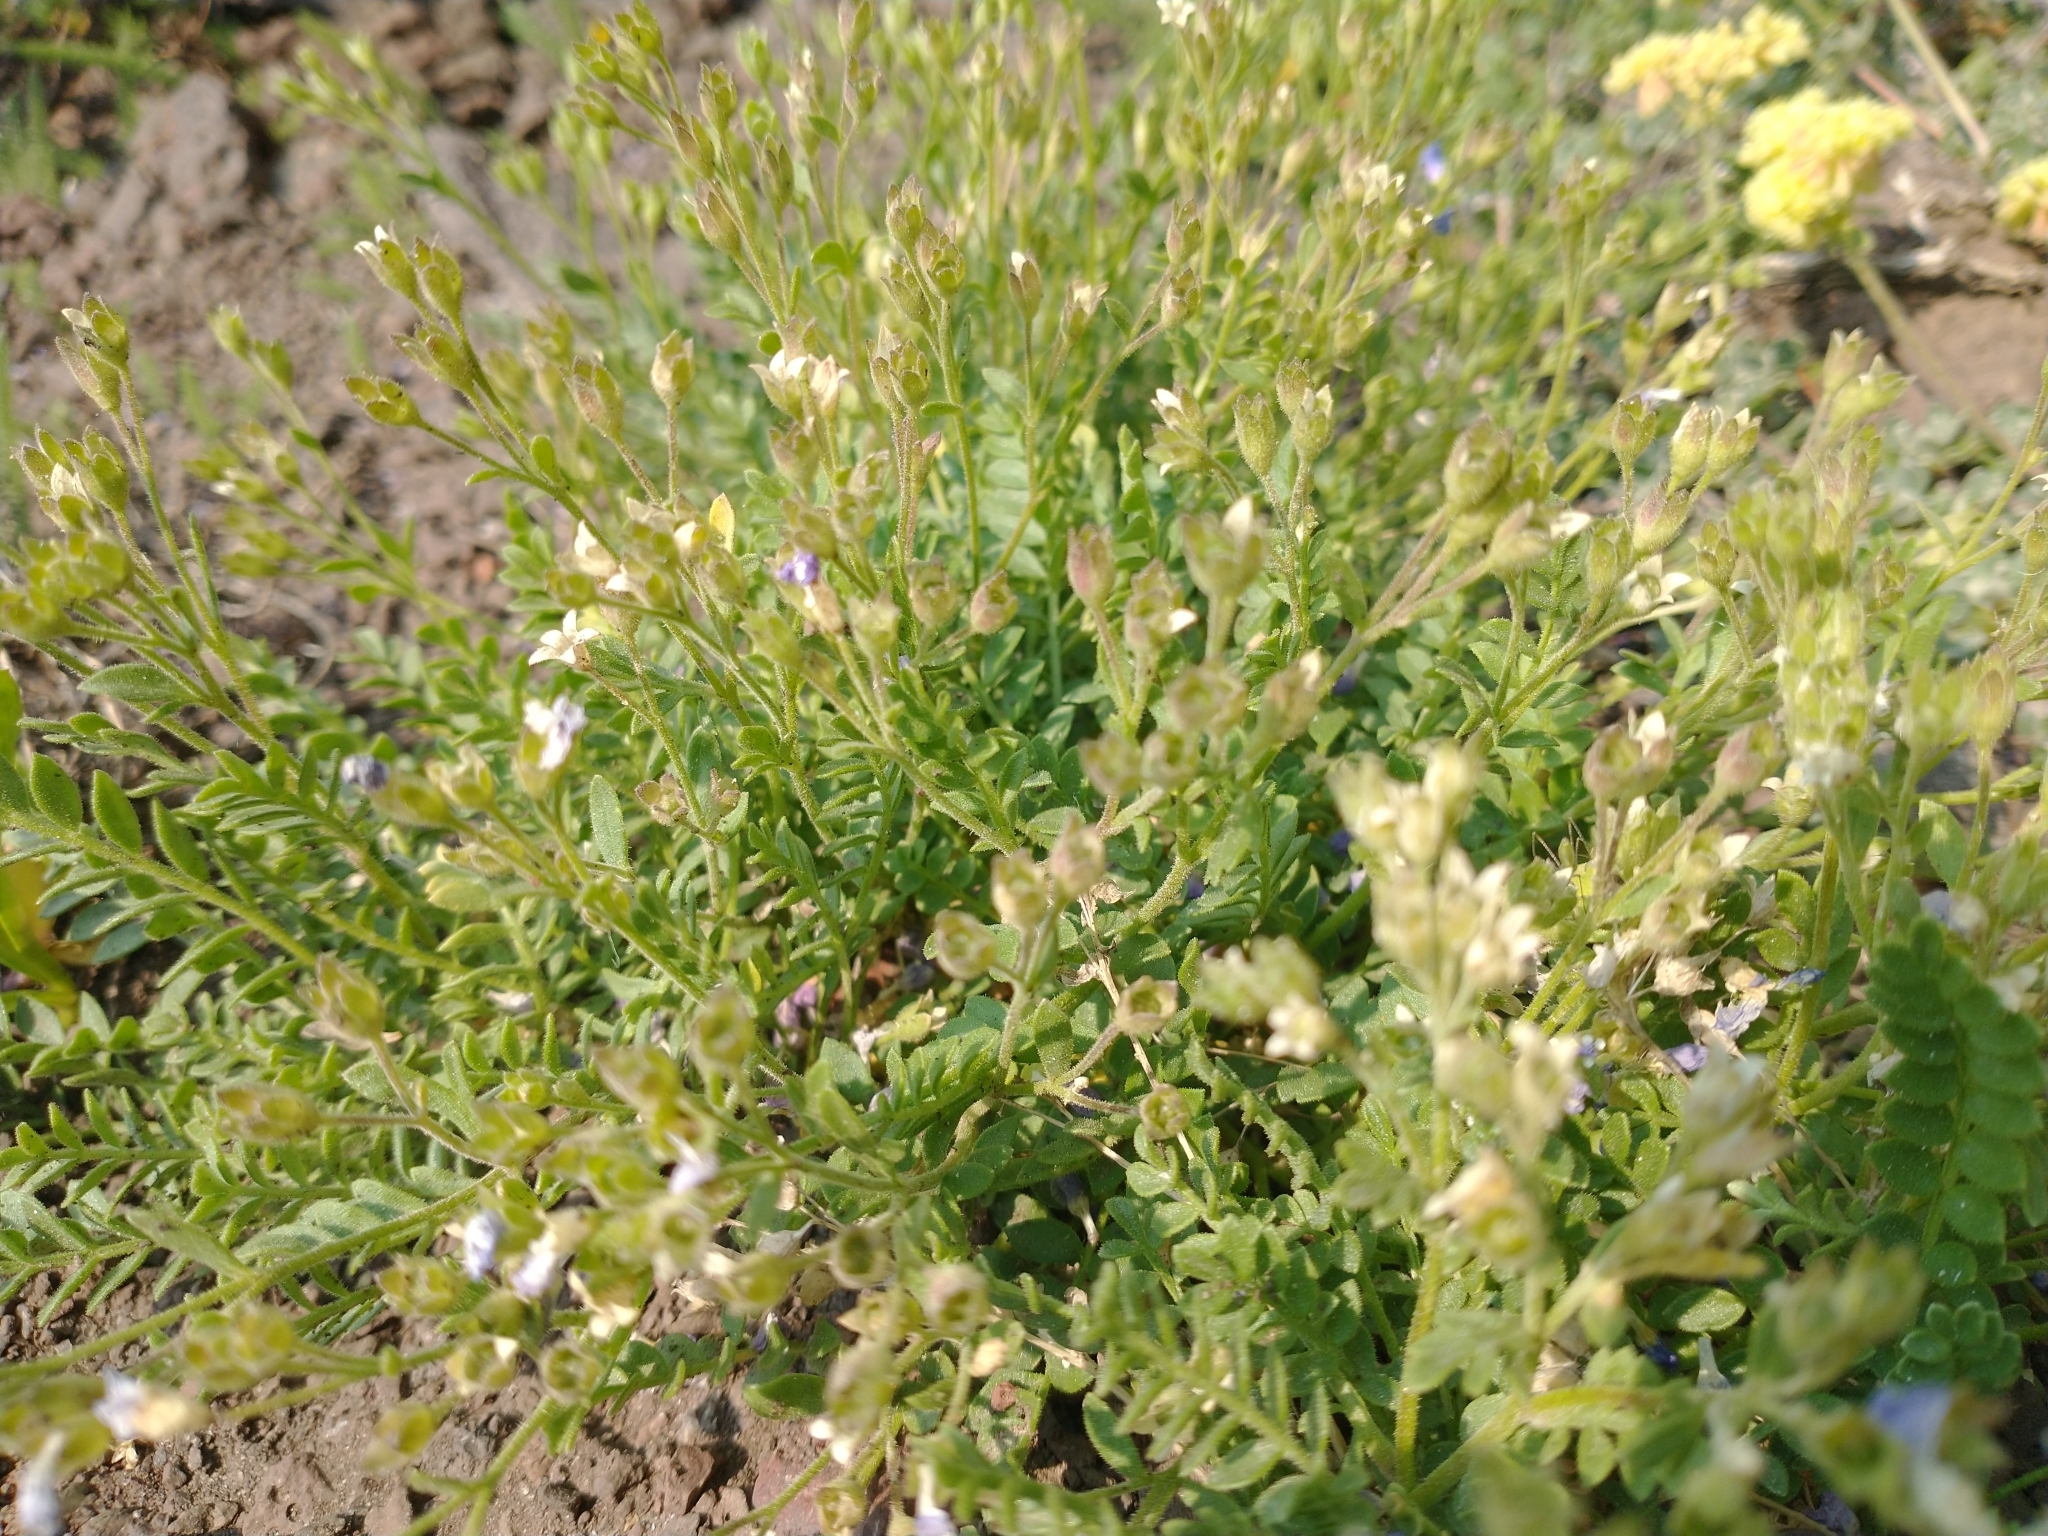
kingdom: Plantae
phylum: Tracheophyta
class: Magnoliopsida
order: Ericales
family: Polemoniaceae
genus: Polemonium
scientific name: Polemonium pulcherrimum
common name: Short jacob's-ladder
